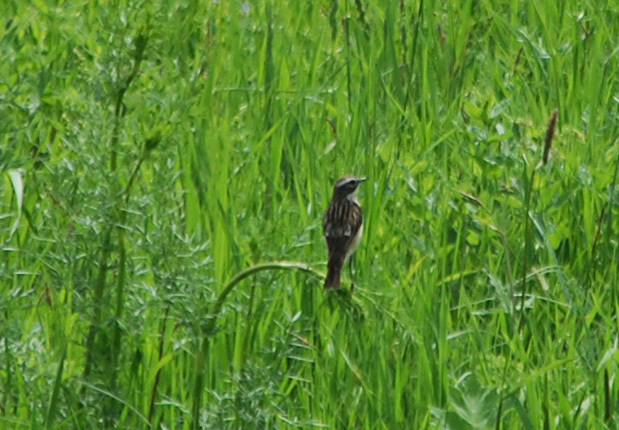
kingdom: Animalia
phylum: Chordata
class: Aves
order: Passeriformes
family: Muscicapidae
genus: Saxicola
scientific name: Saxicola rubetra
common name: Whinchat
